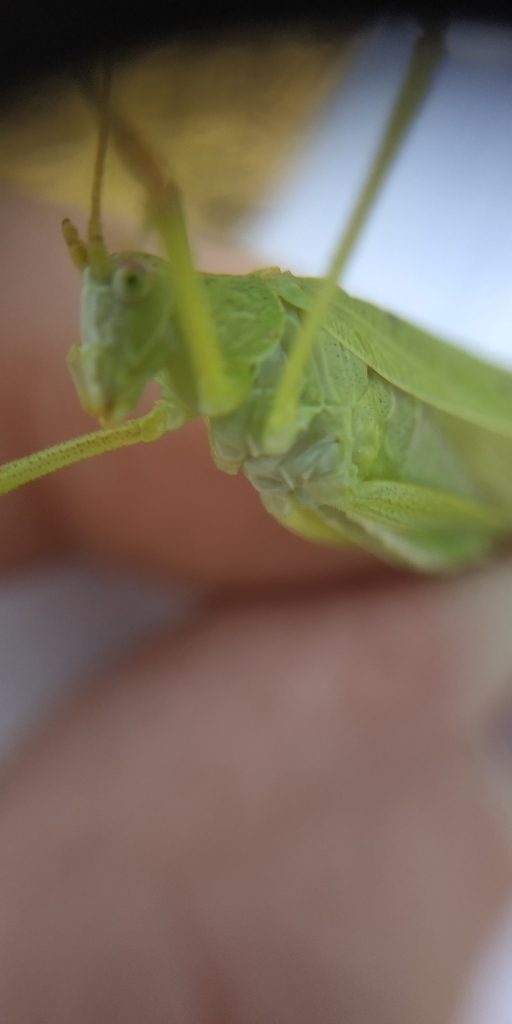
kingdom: Animalia
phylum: Arthropoda
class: Insecta
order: Orthoptera
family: Tettigoniidae
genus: Phaneroptera
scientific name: Phaneroptera falcata
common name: Sickle-bearing bush-cricket
